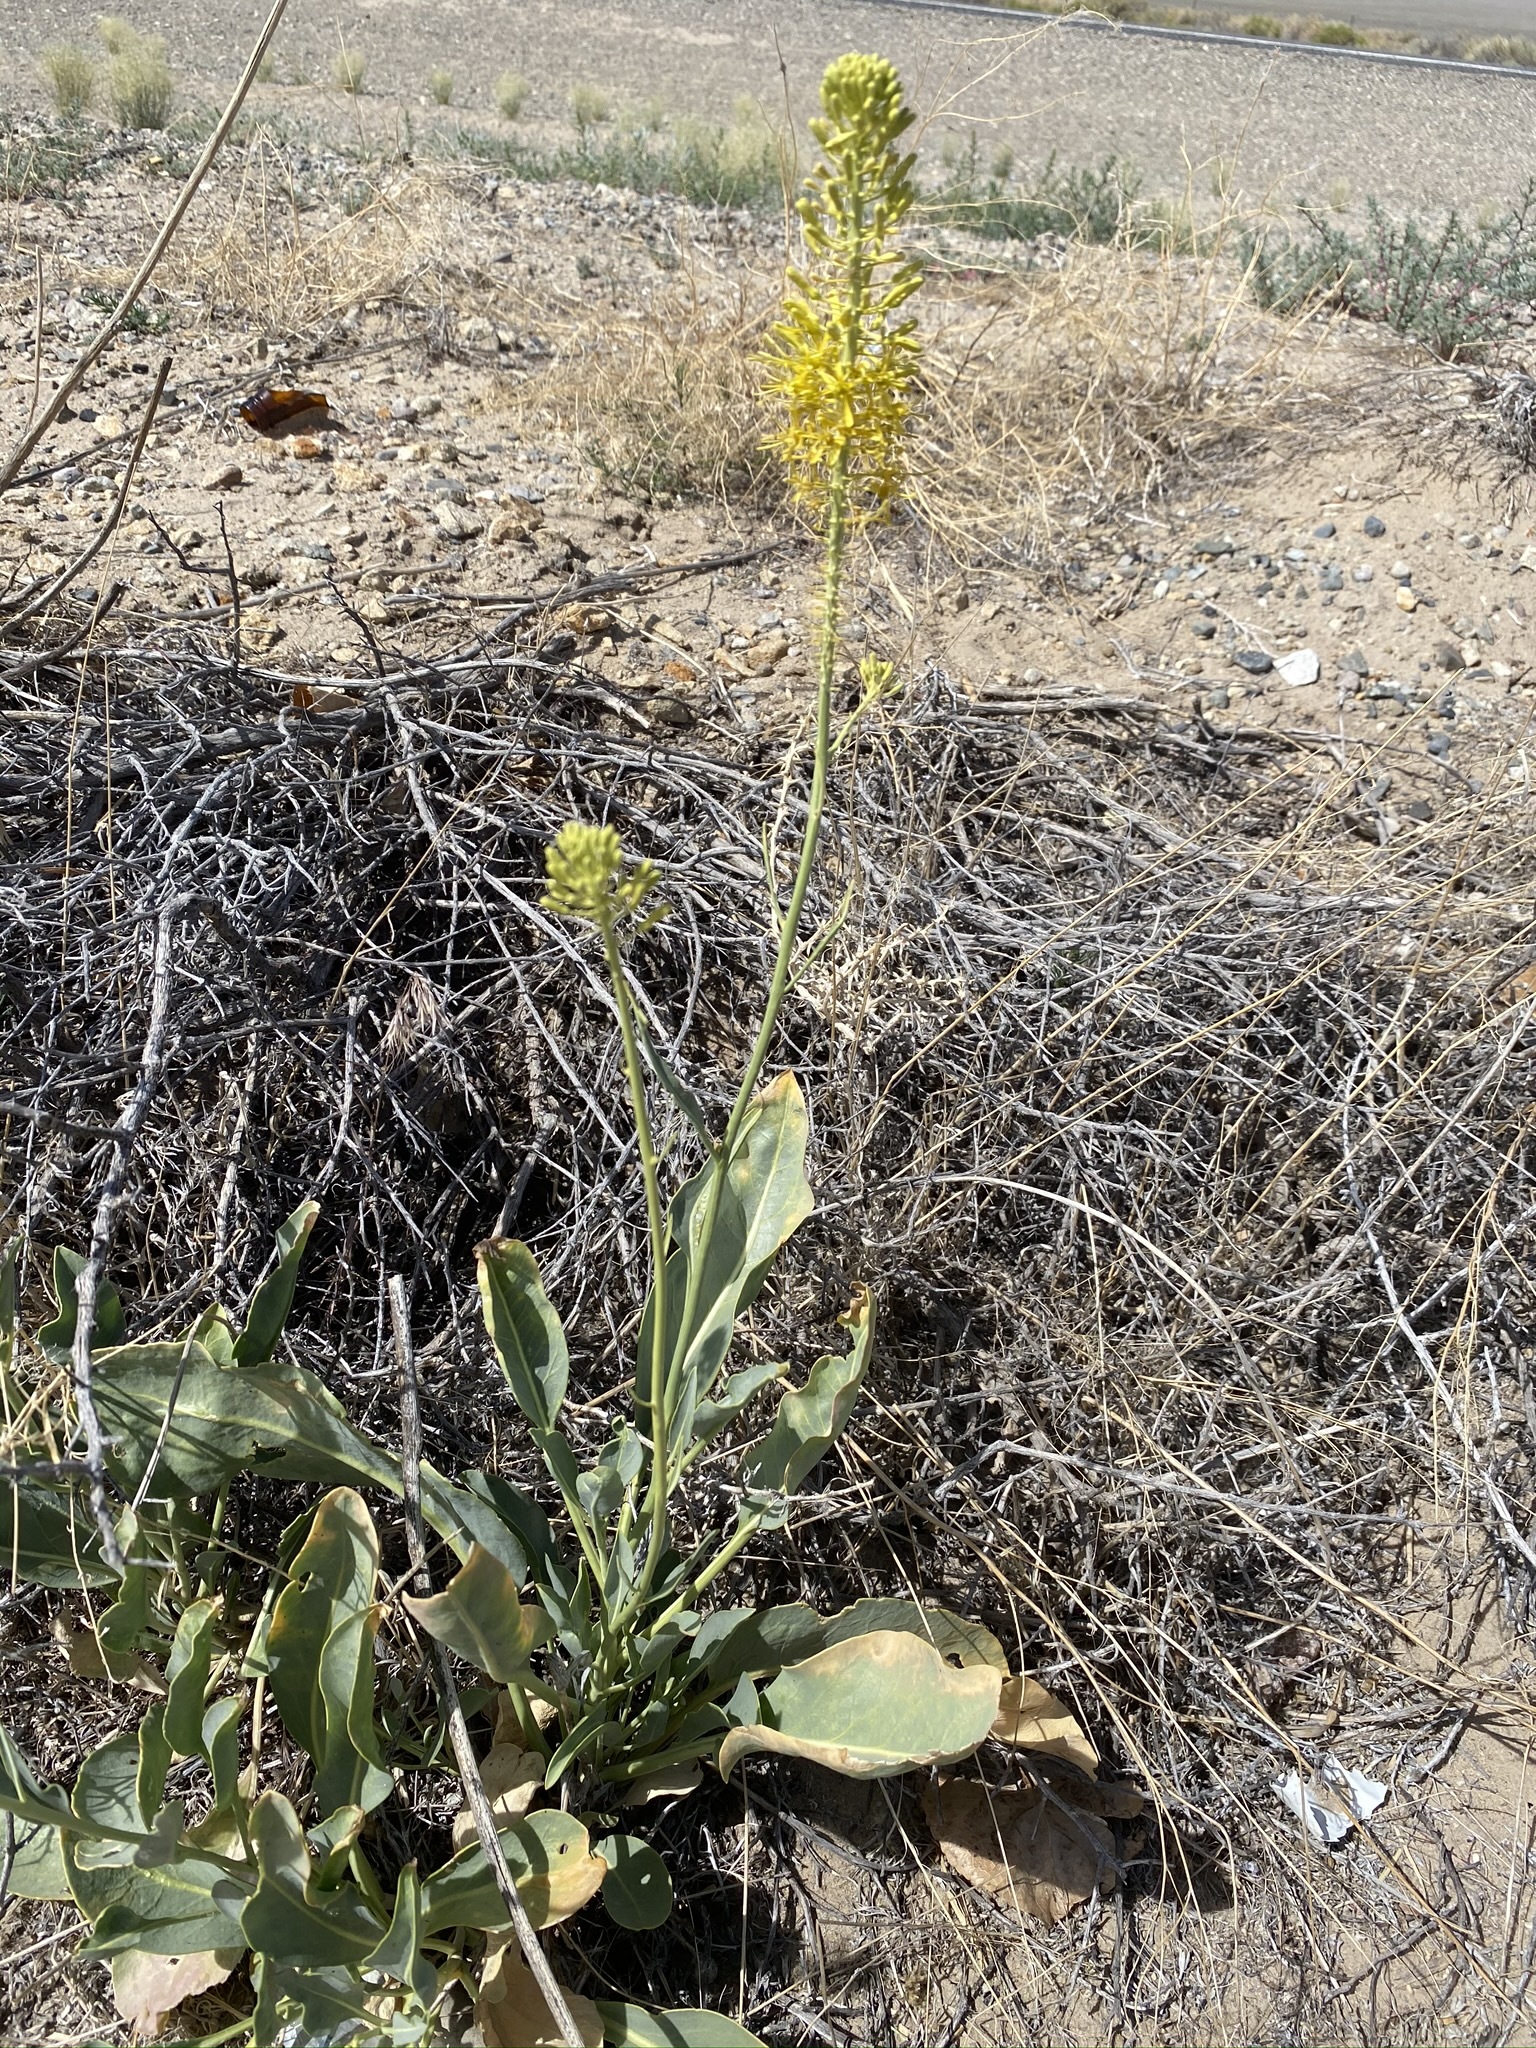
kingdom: Plantae
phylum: Tracheophyta
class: Magnoliopsida
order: Brassicales
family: Brassicaceae
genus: Stanleya
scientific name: Stanleya elata
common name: Panamint prince's plume
